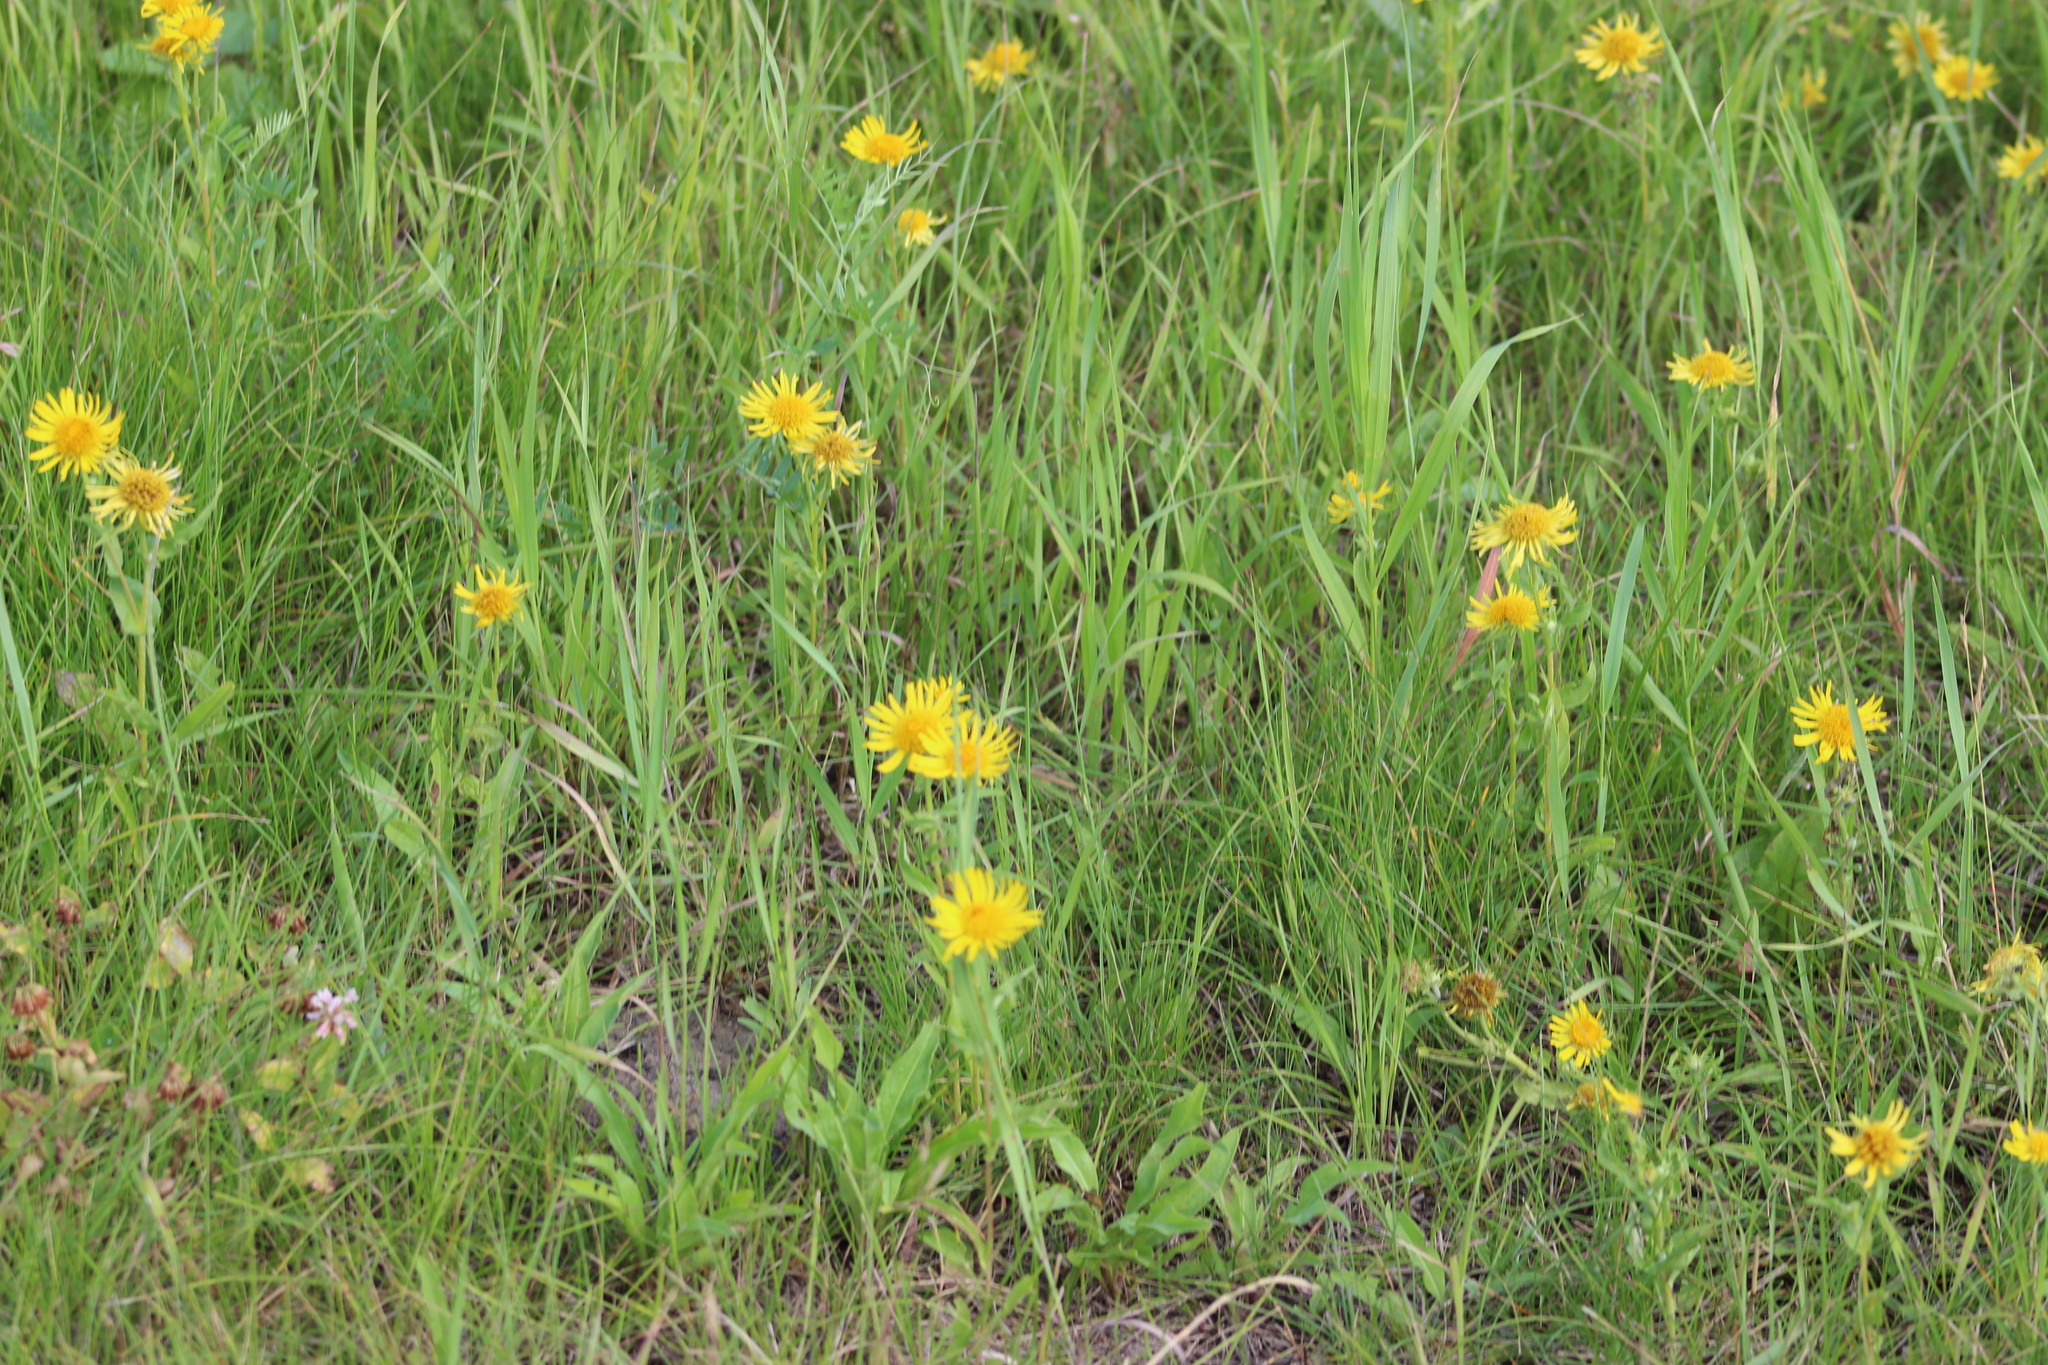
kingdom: Plantae
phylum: Tracheophyta
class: Magnoliopsida
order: Asterales
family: Asteraceae
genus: Pentanema
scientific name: Pentanema britannicum
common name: British elecampane
